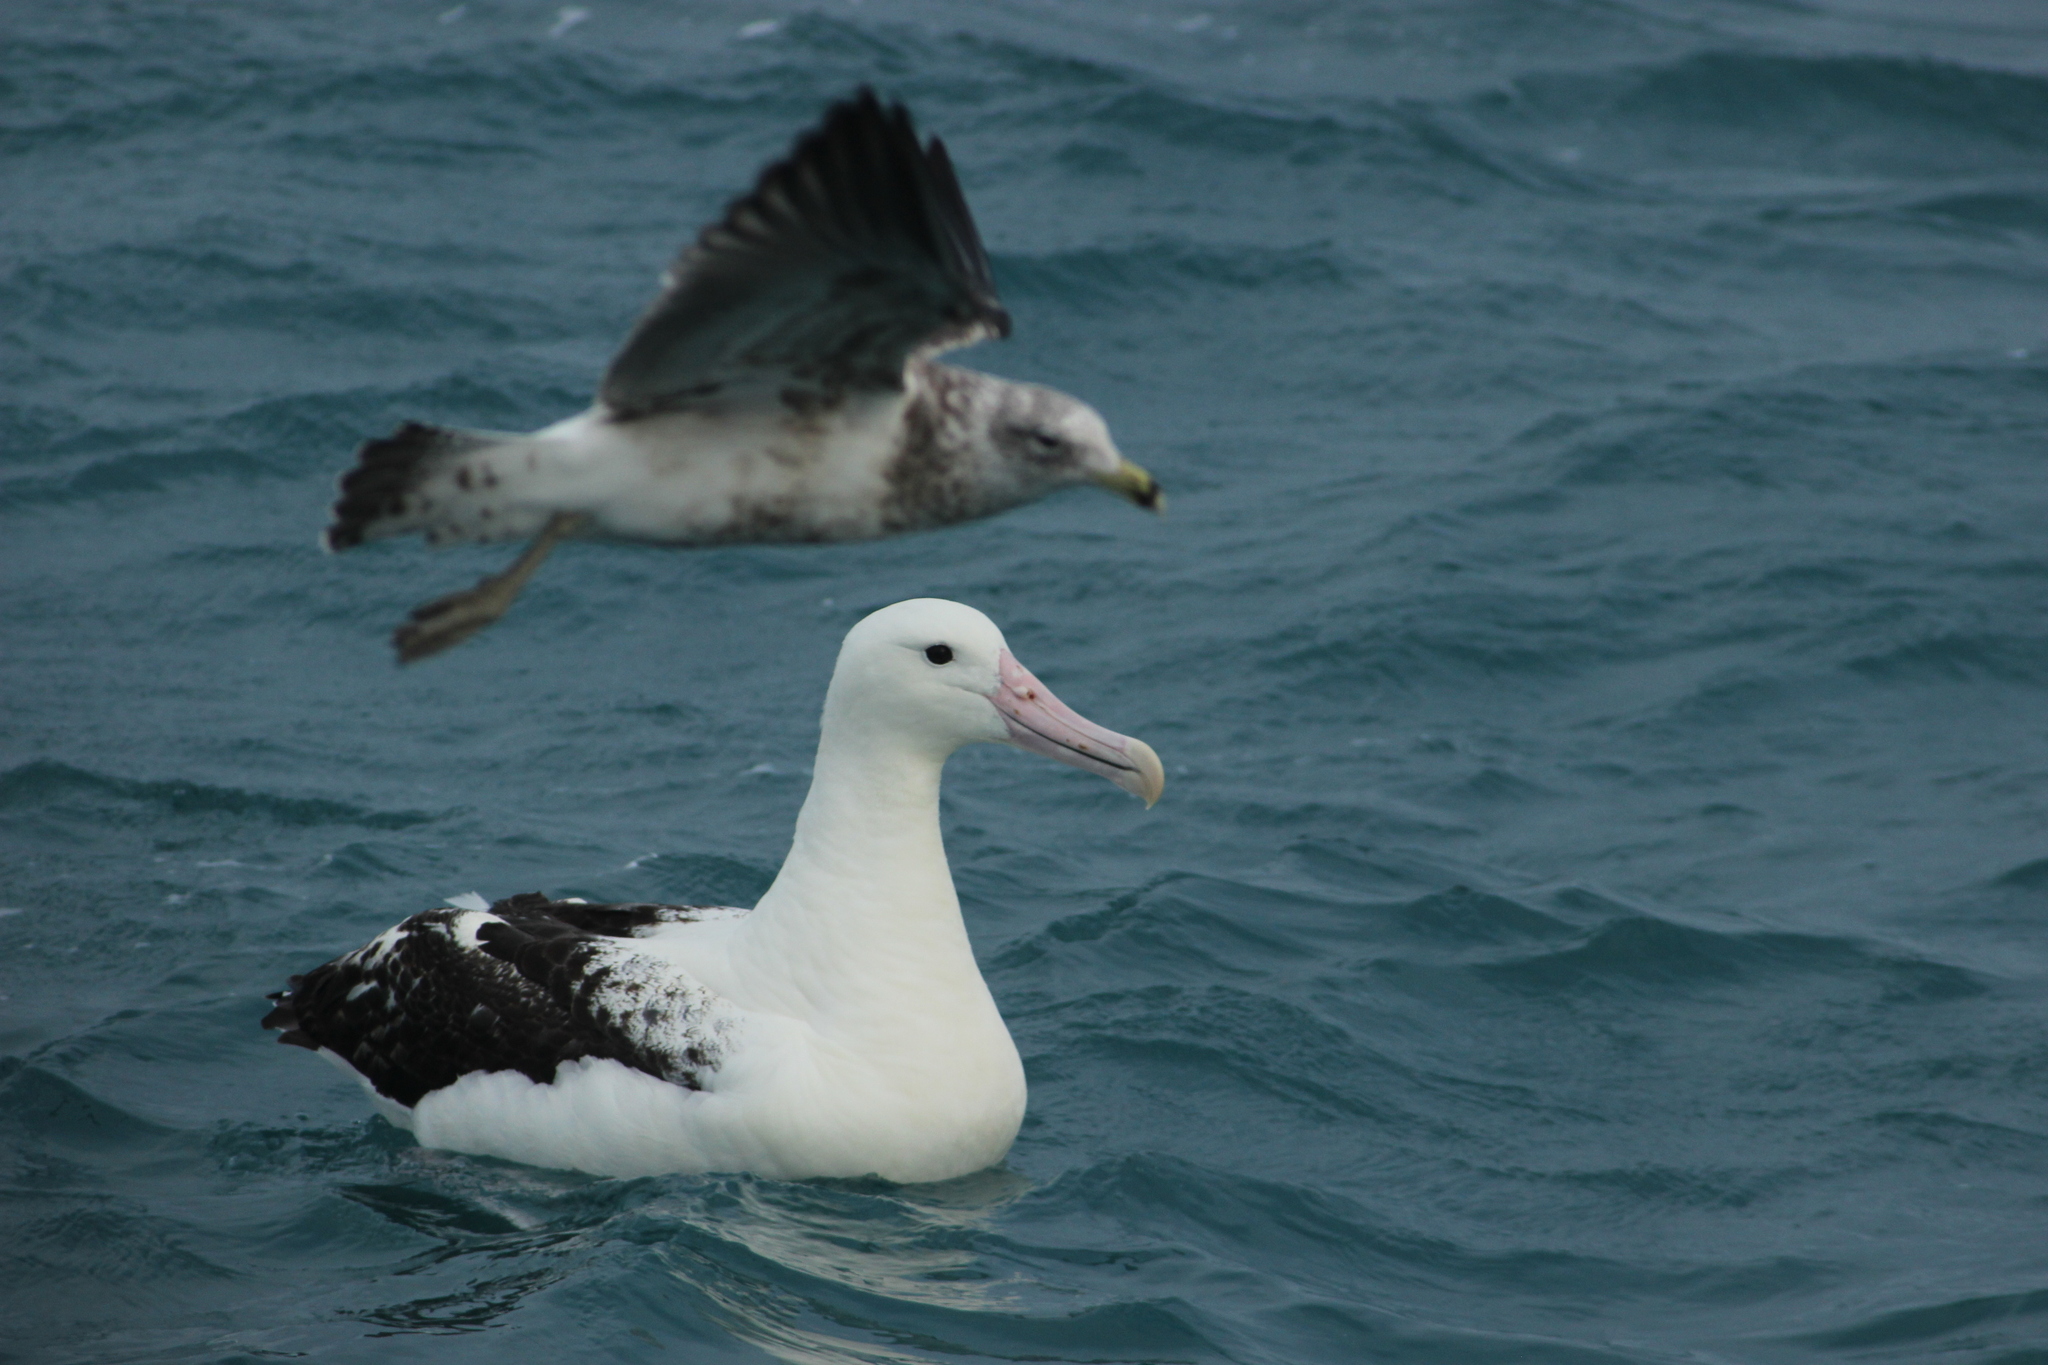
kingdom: Animalia
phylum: Chordata
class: Aves
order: Procellariiformes
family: Diomedeidae
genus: Diomedea
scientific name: Diomedea sanfordi
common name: Northern royal albatross
